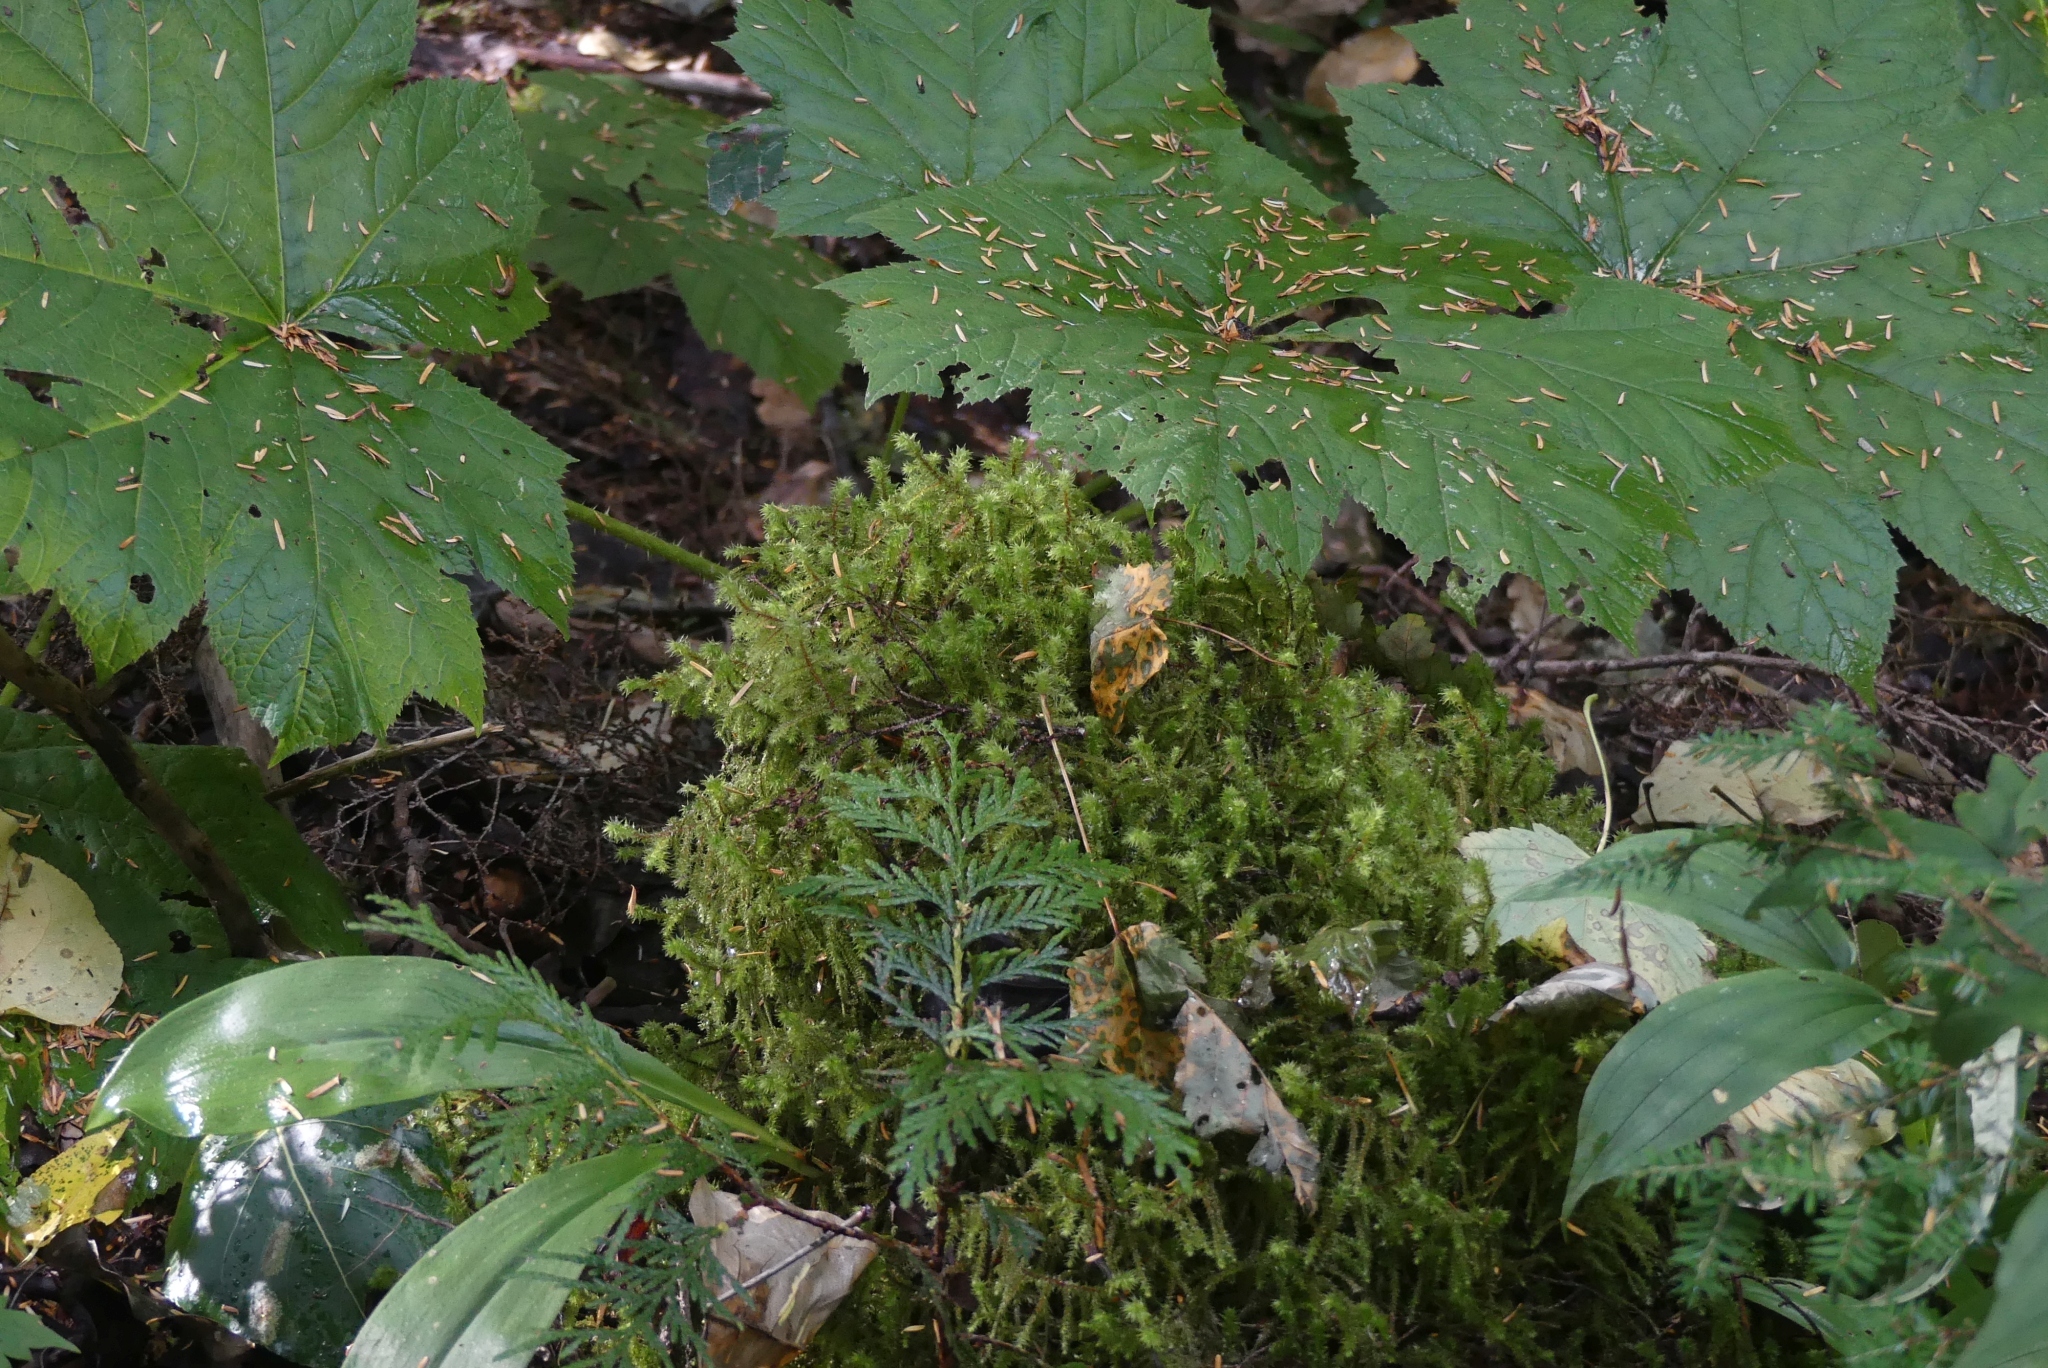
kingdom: Plantae
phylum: Bryophyta
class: Bryopsida
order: Hypnales
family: Hylocomiaceae
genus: Hylocomiadelphus
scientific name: Hylocomiadelphus triquetrus
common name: Rough goose neck moss
